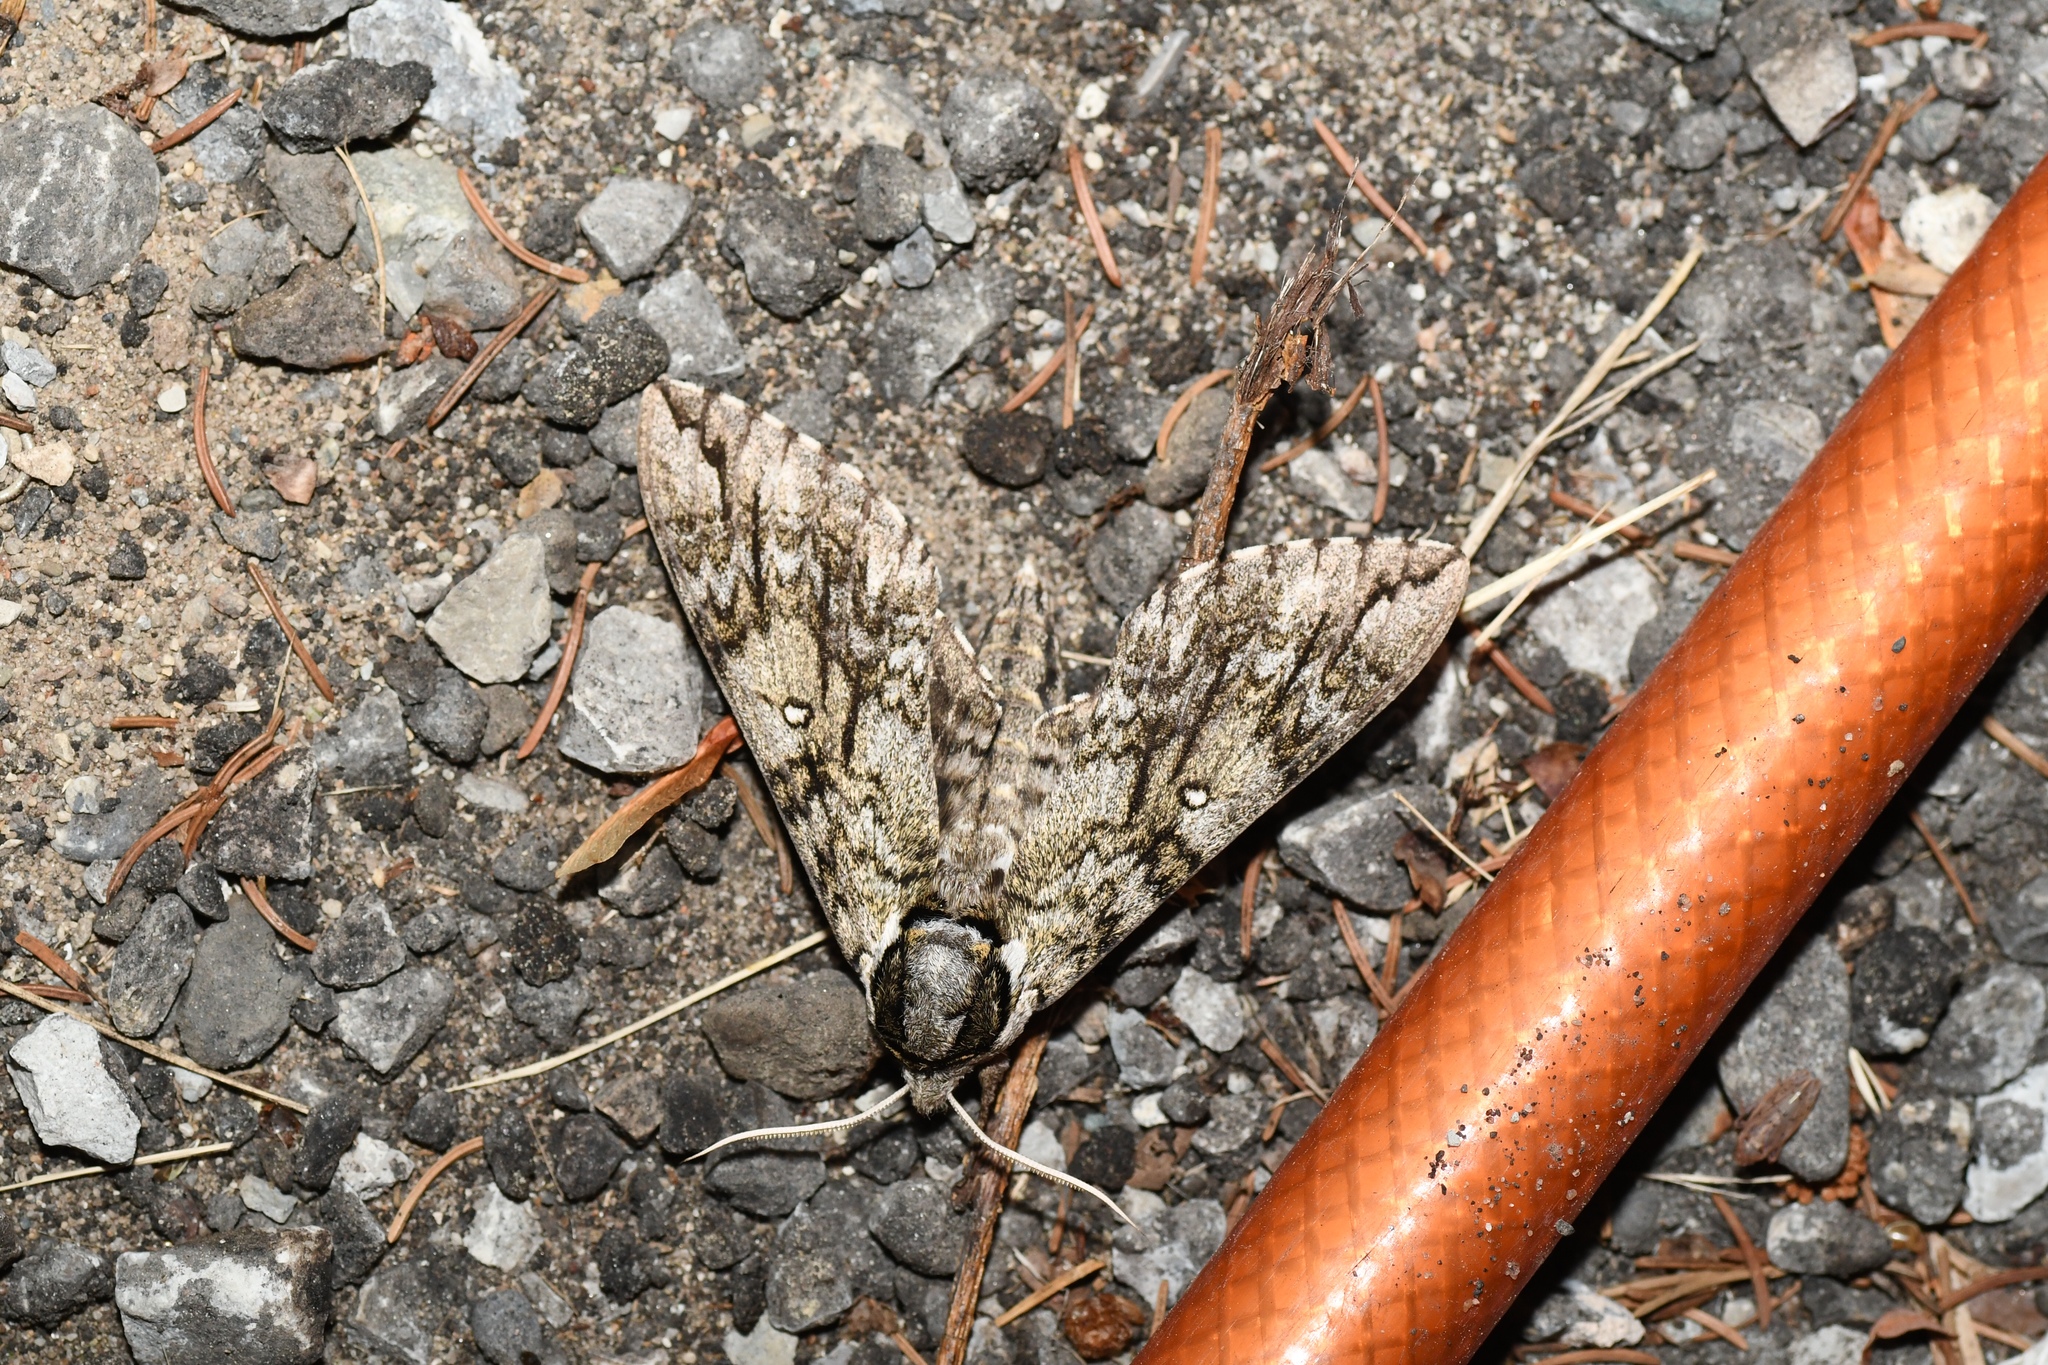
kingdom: Animalia
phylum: Arthropoda
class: Insecta
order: Lepidoptera
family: Sphingidae
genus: Ceratomia
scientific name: Ceratomia undulosa
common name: Waved sphinx
